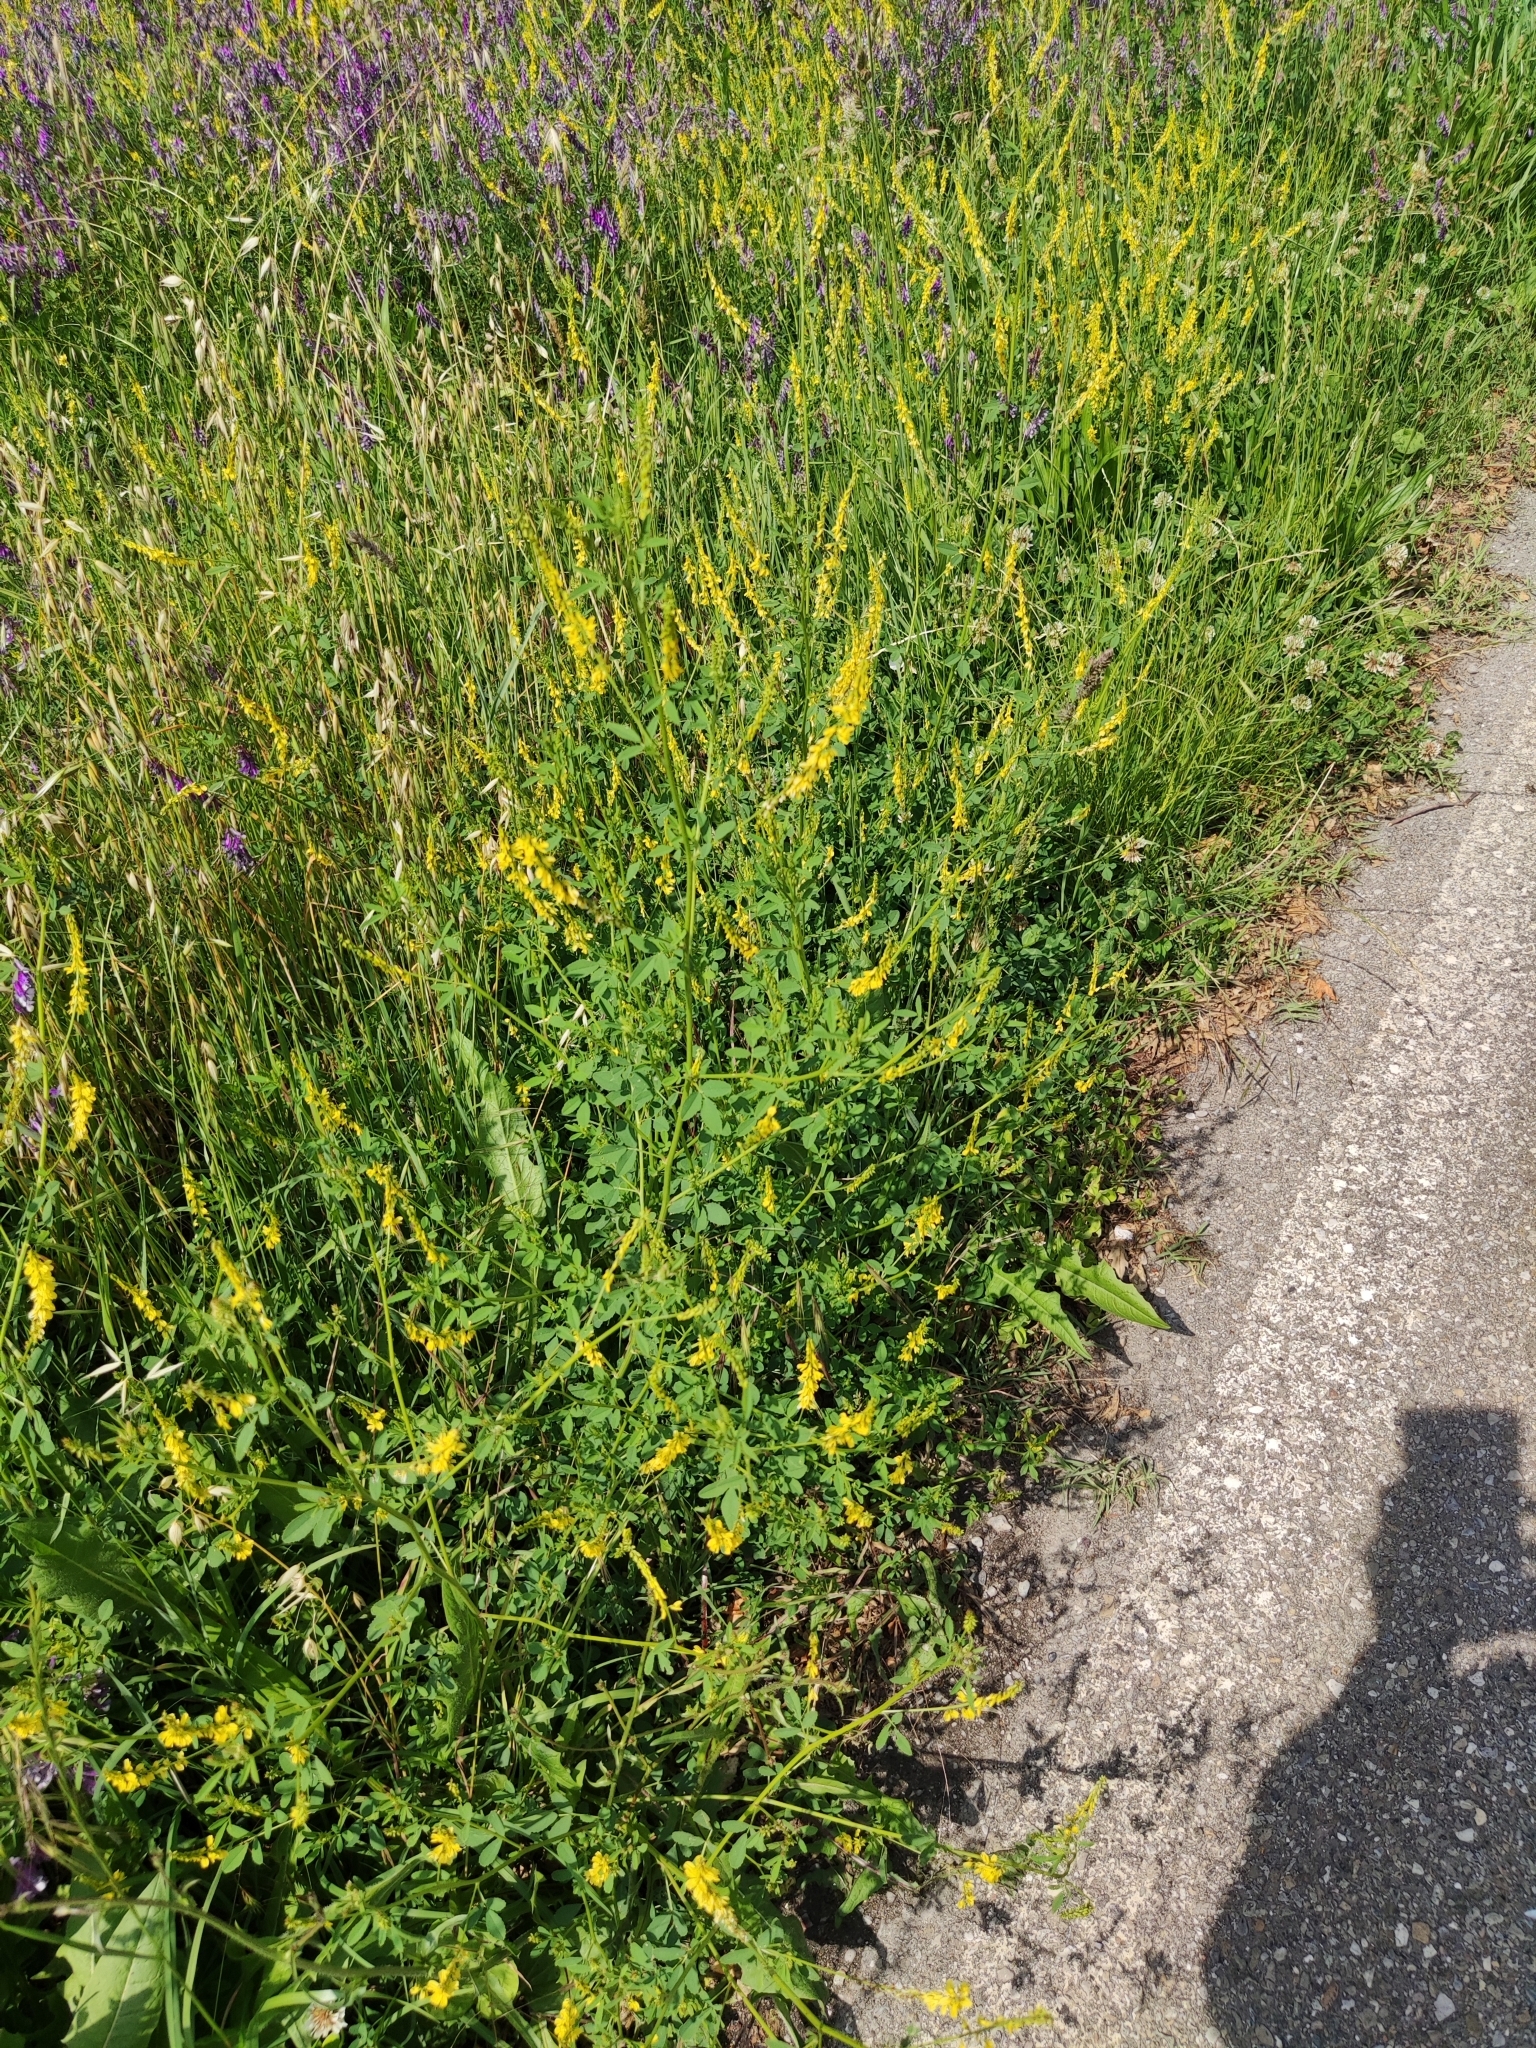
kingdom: Plantae
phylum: Tracheophyta
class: Magnoliopsida
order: Fabales
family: Fabaceae
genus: Melilotus
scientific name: Melilotus officinalis
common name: Sweetclover
